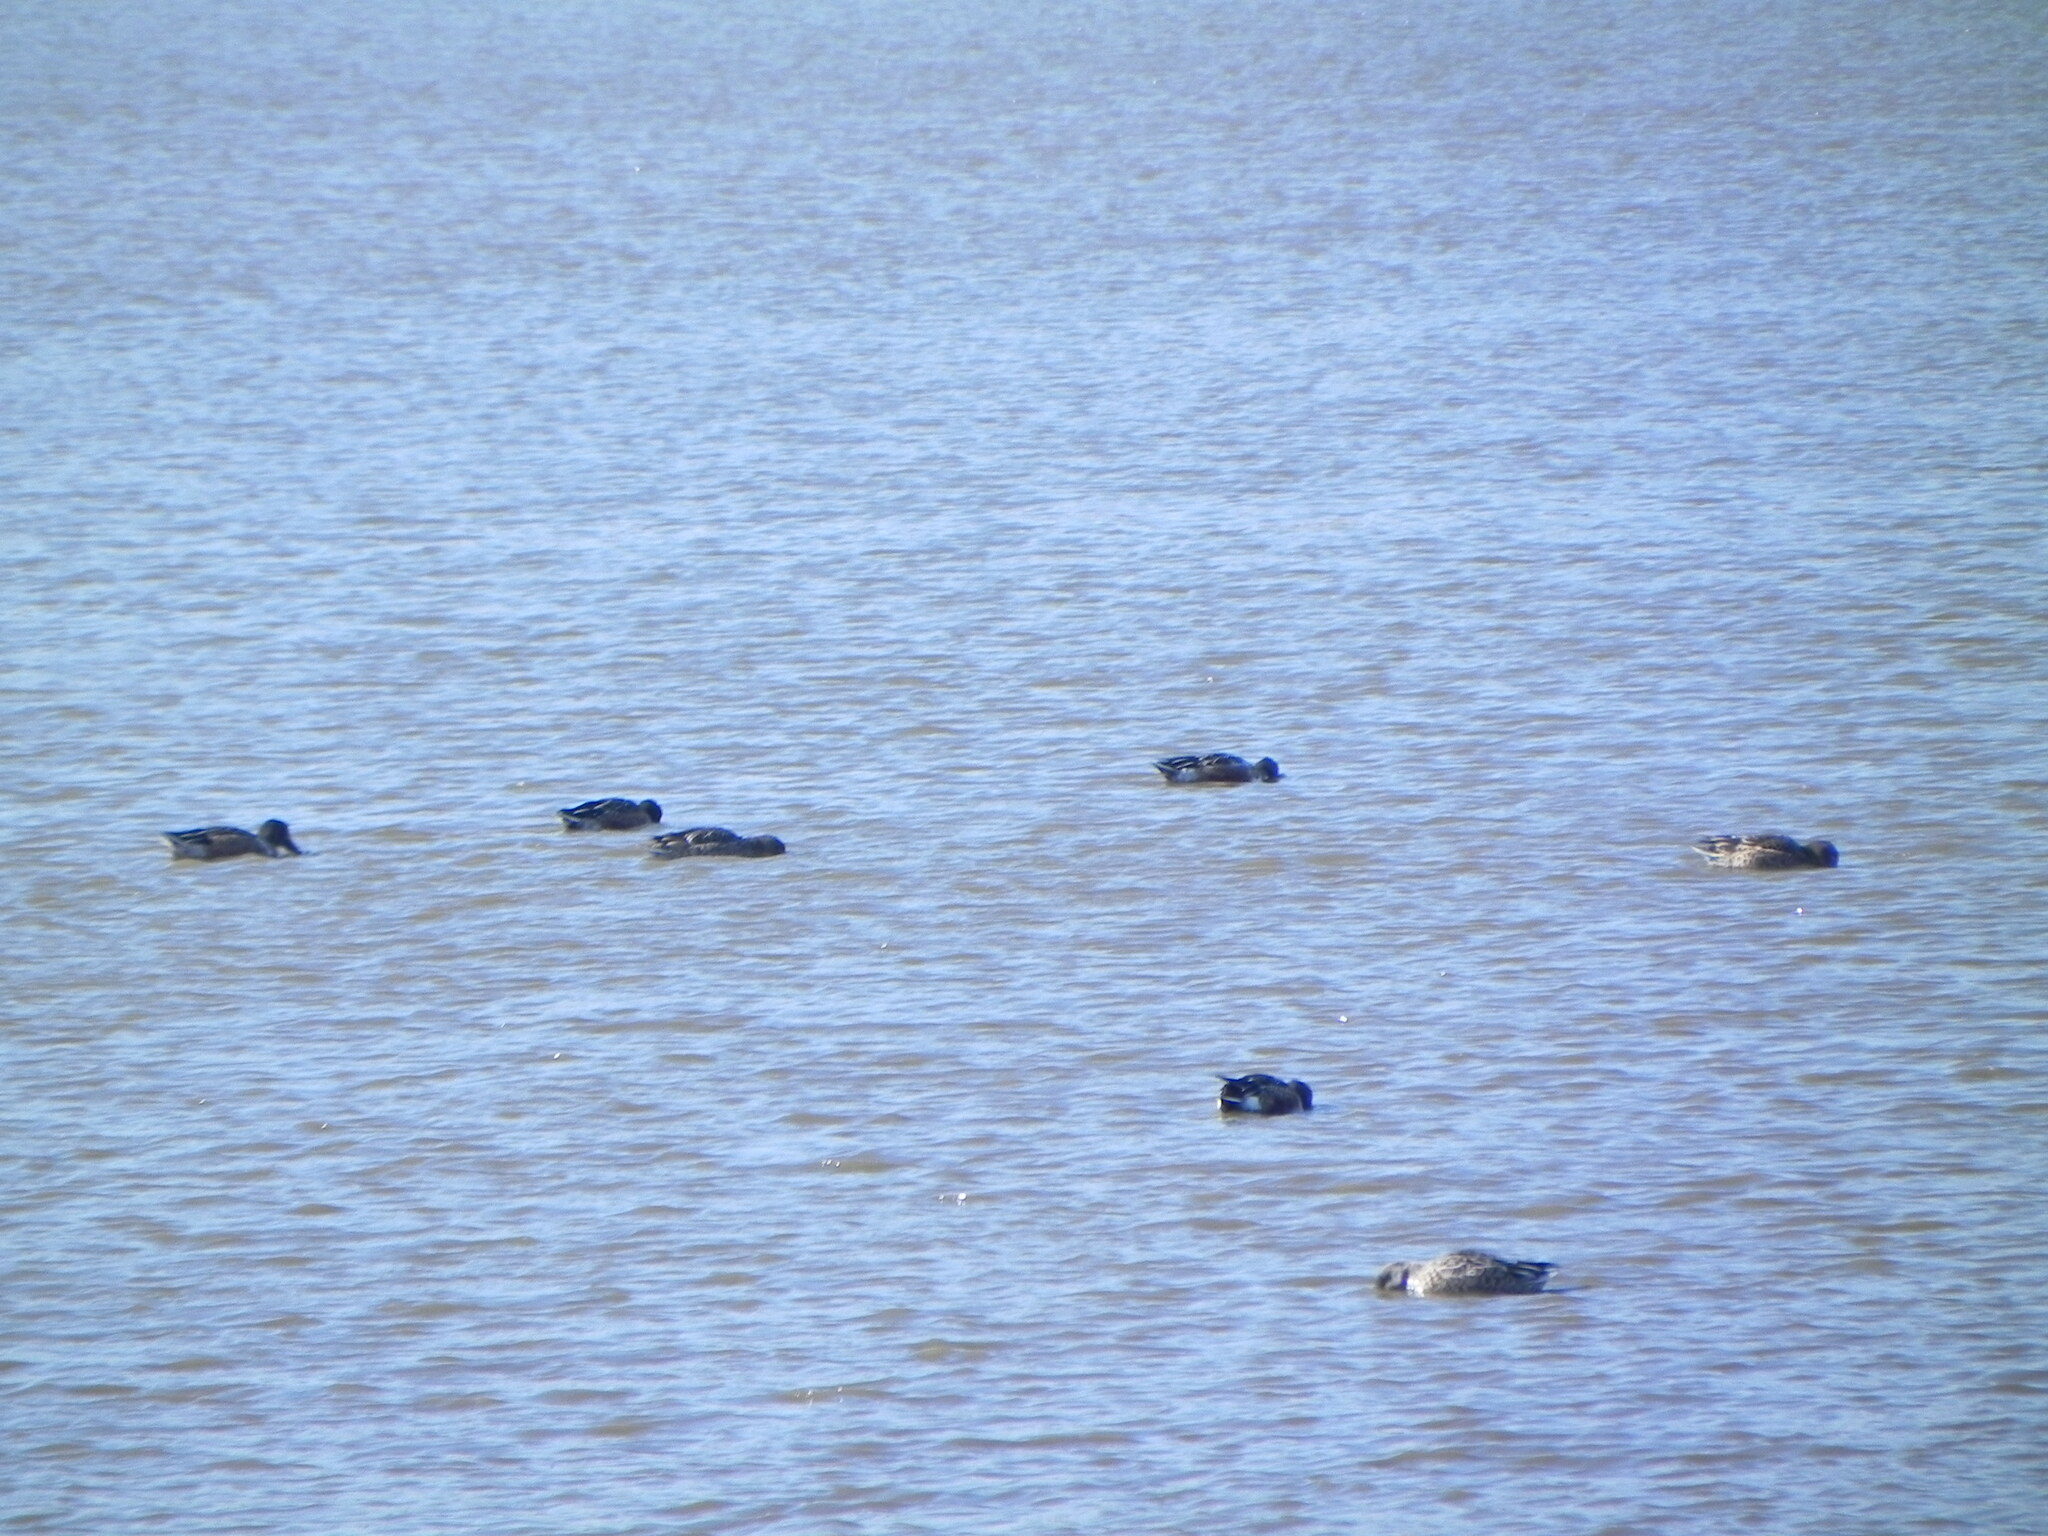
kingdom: Animalia
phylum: Chordata
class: Aves
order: Anseriformes
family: Anatidae
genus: Spatula
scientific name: Spatula clypeata
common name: Northern shoveler
